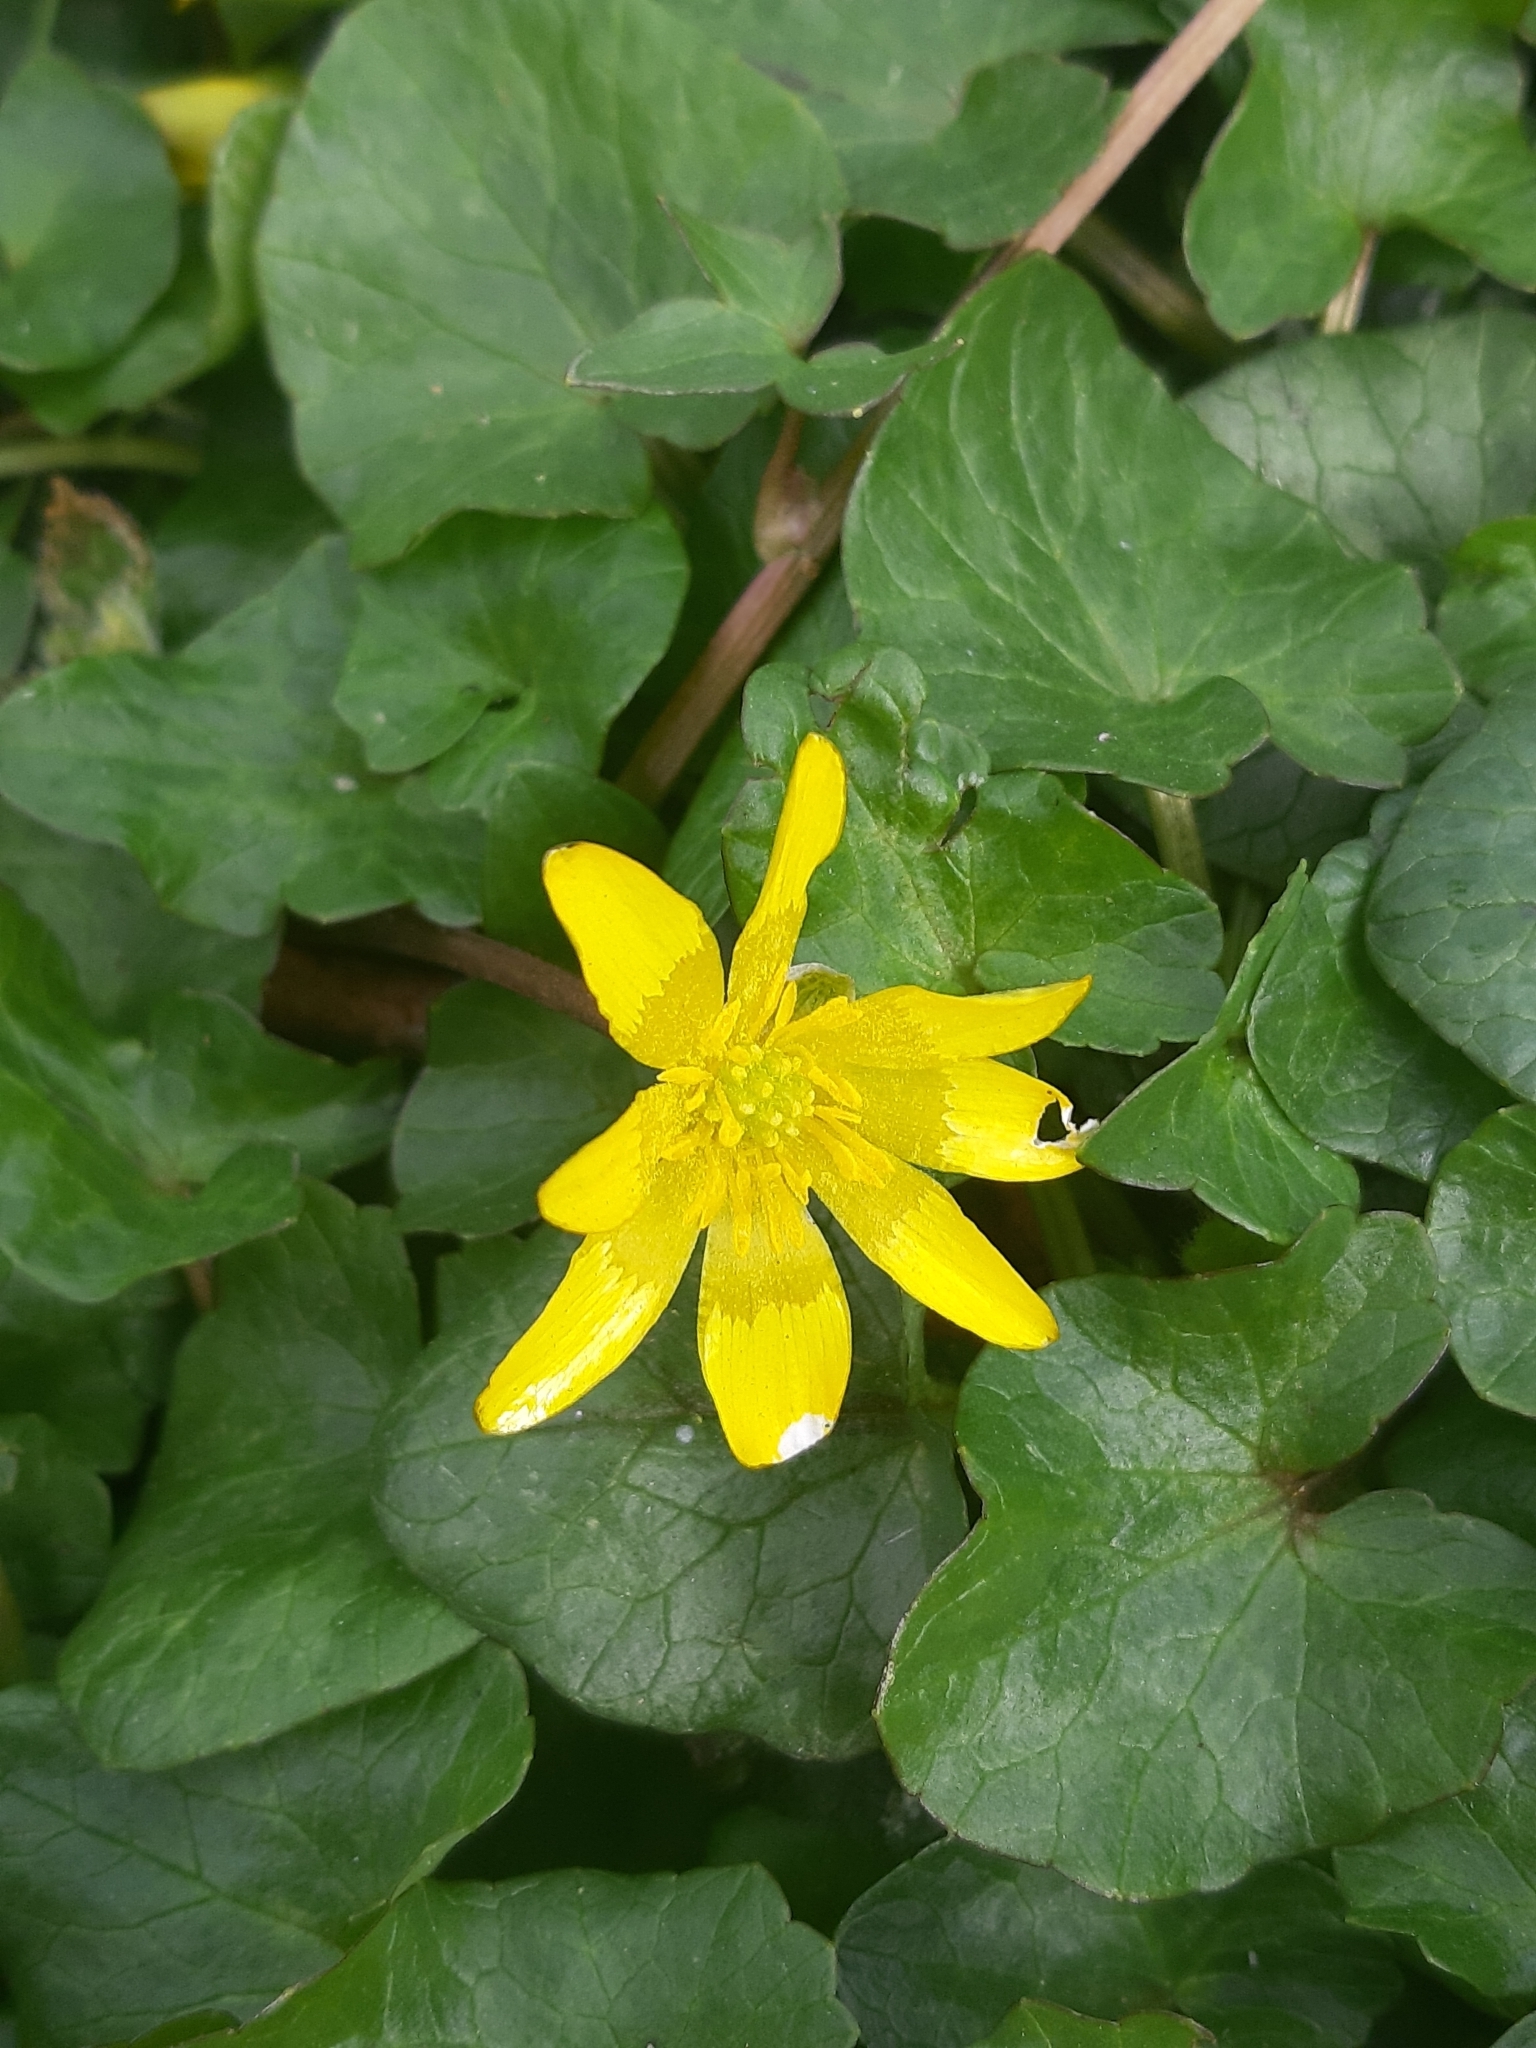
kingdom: Plantae
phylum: Tracheophyta
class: Magnoliopsida
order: Ranunculales
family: Ranunculaceae
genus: Ficaria
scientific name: Ficaria verna
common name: Lesser celandine
